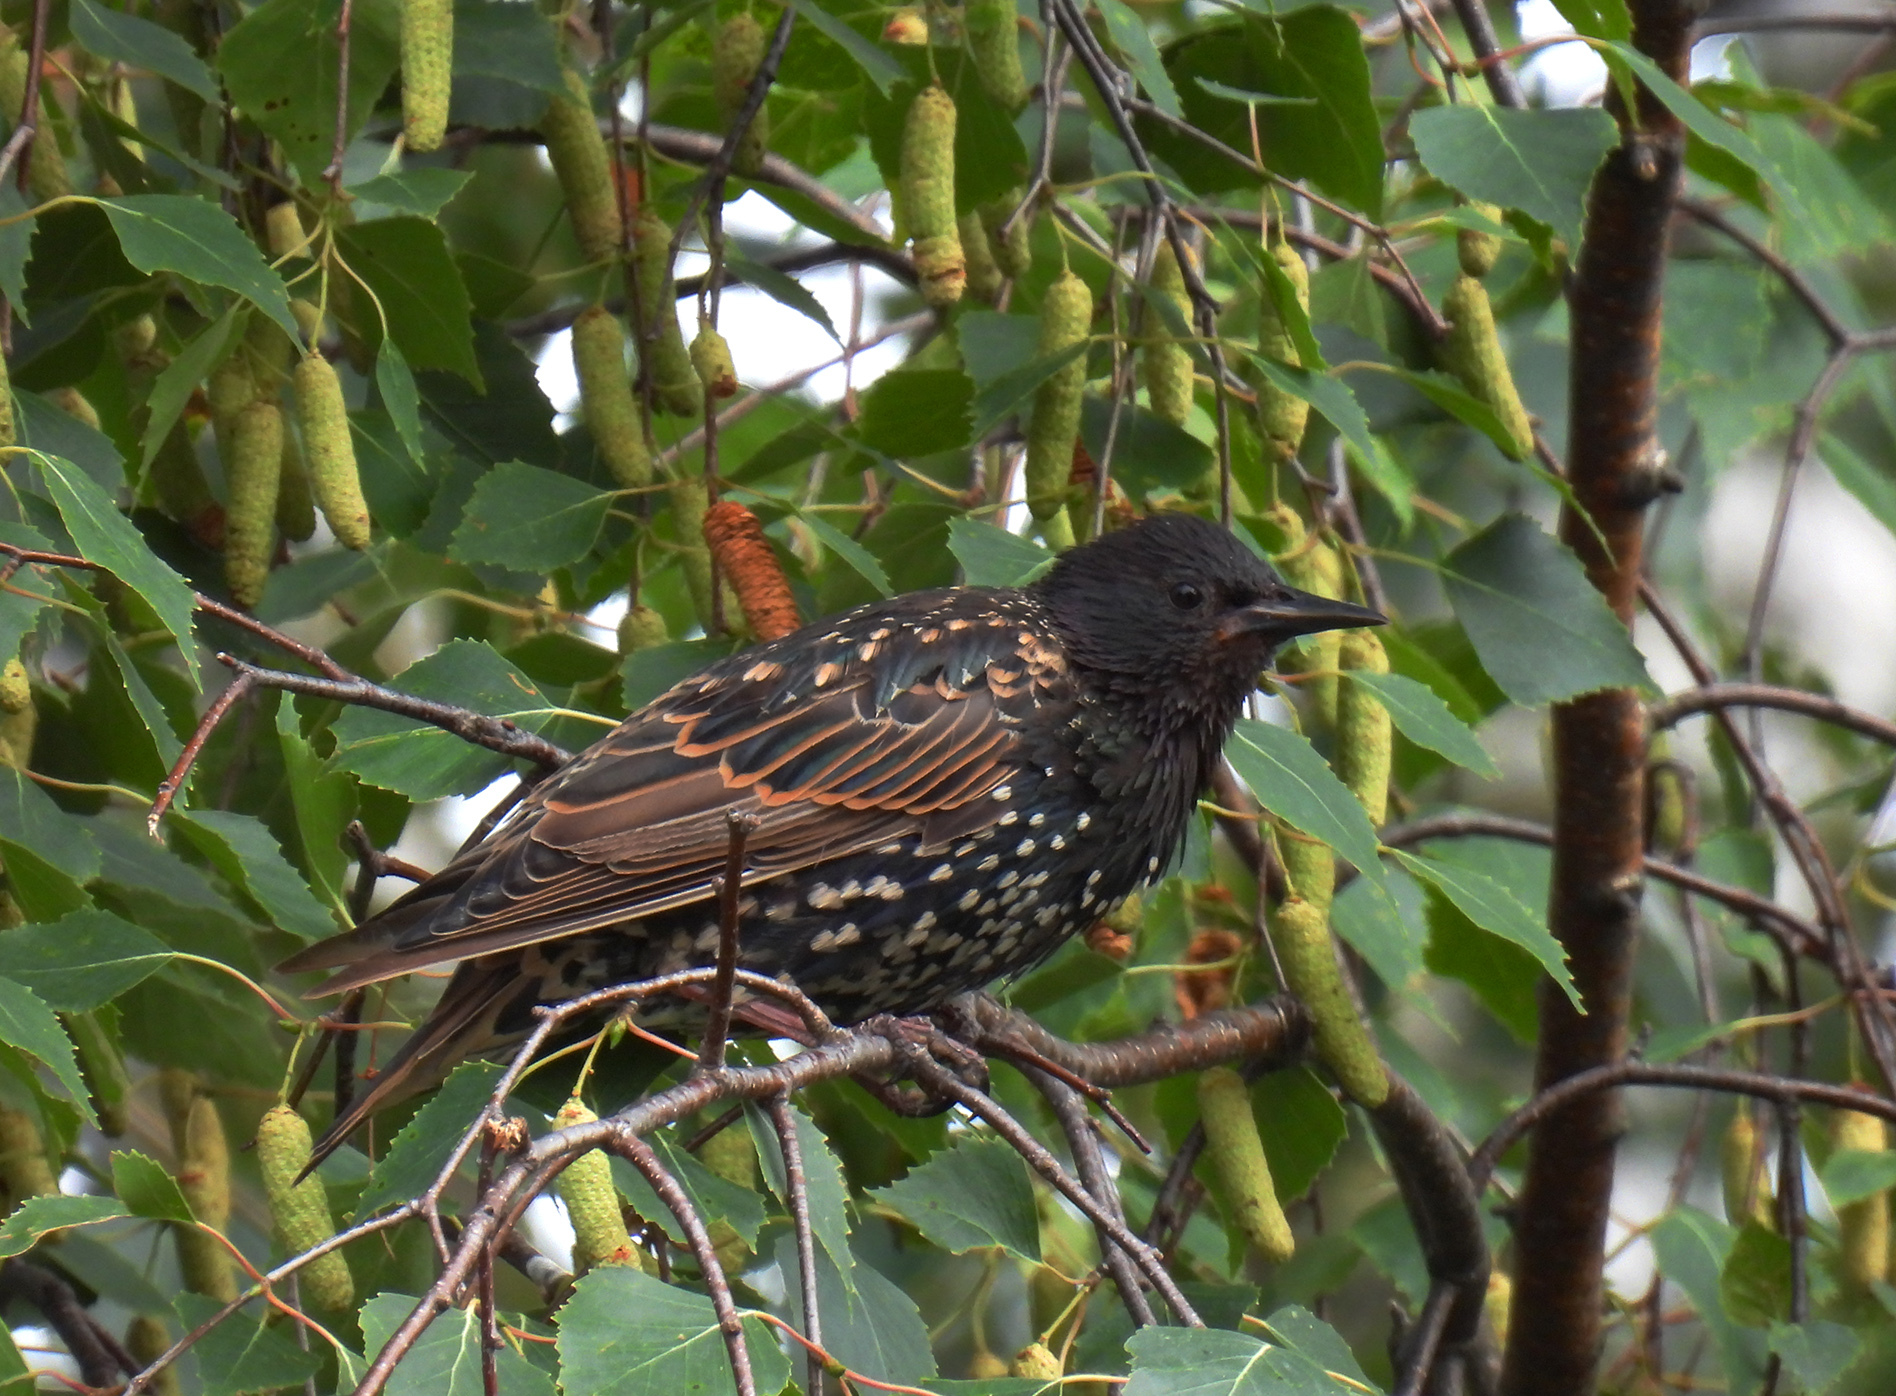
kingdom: Animalia
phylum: Chordata
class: Aves
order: Passeriformes
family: Sturnidae
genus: Sturnus
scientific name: Sturnus vulgaris
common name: Common starling
